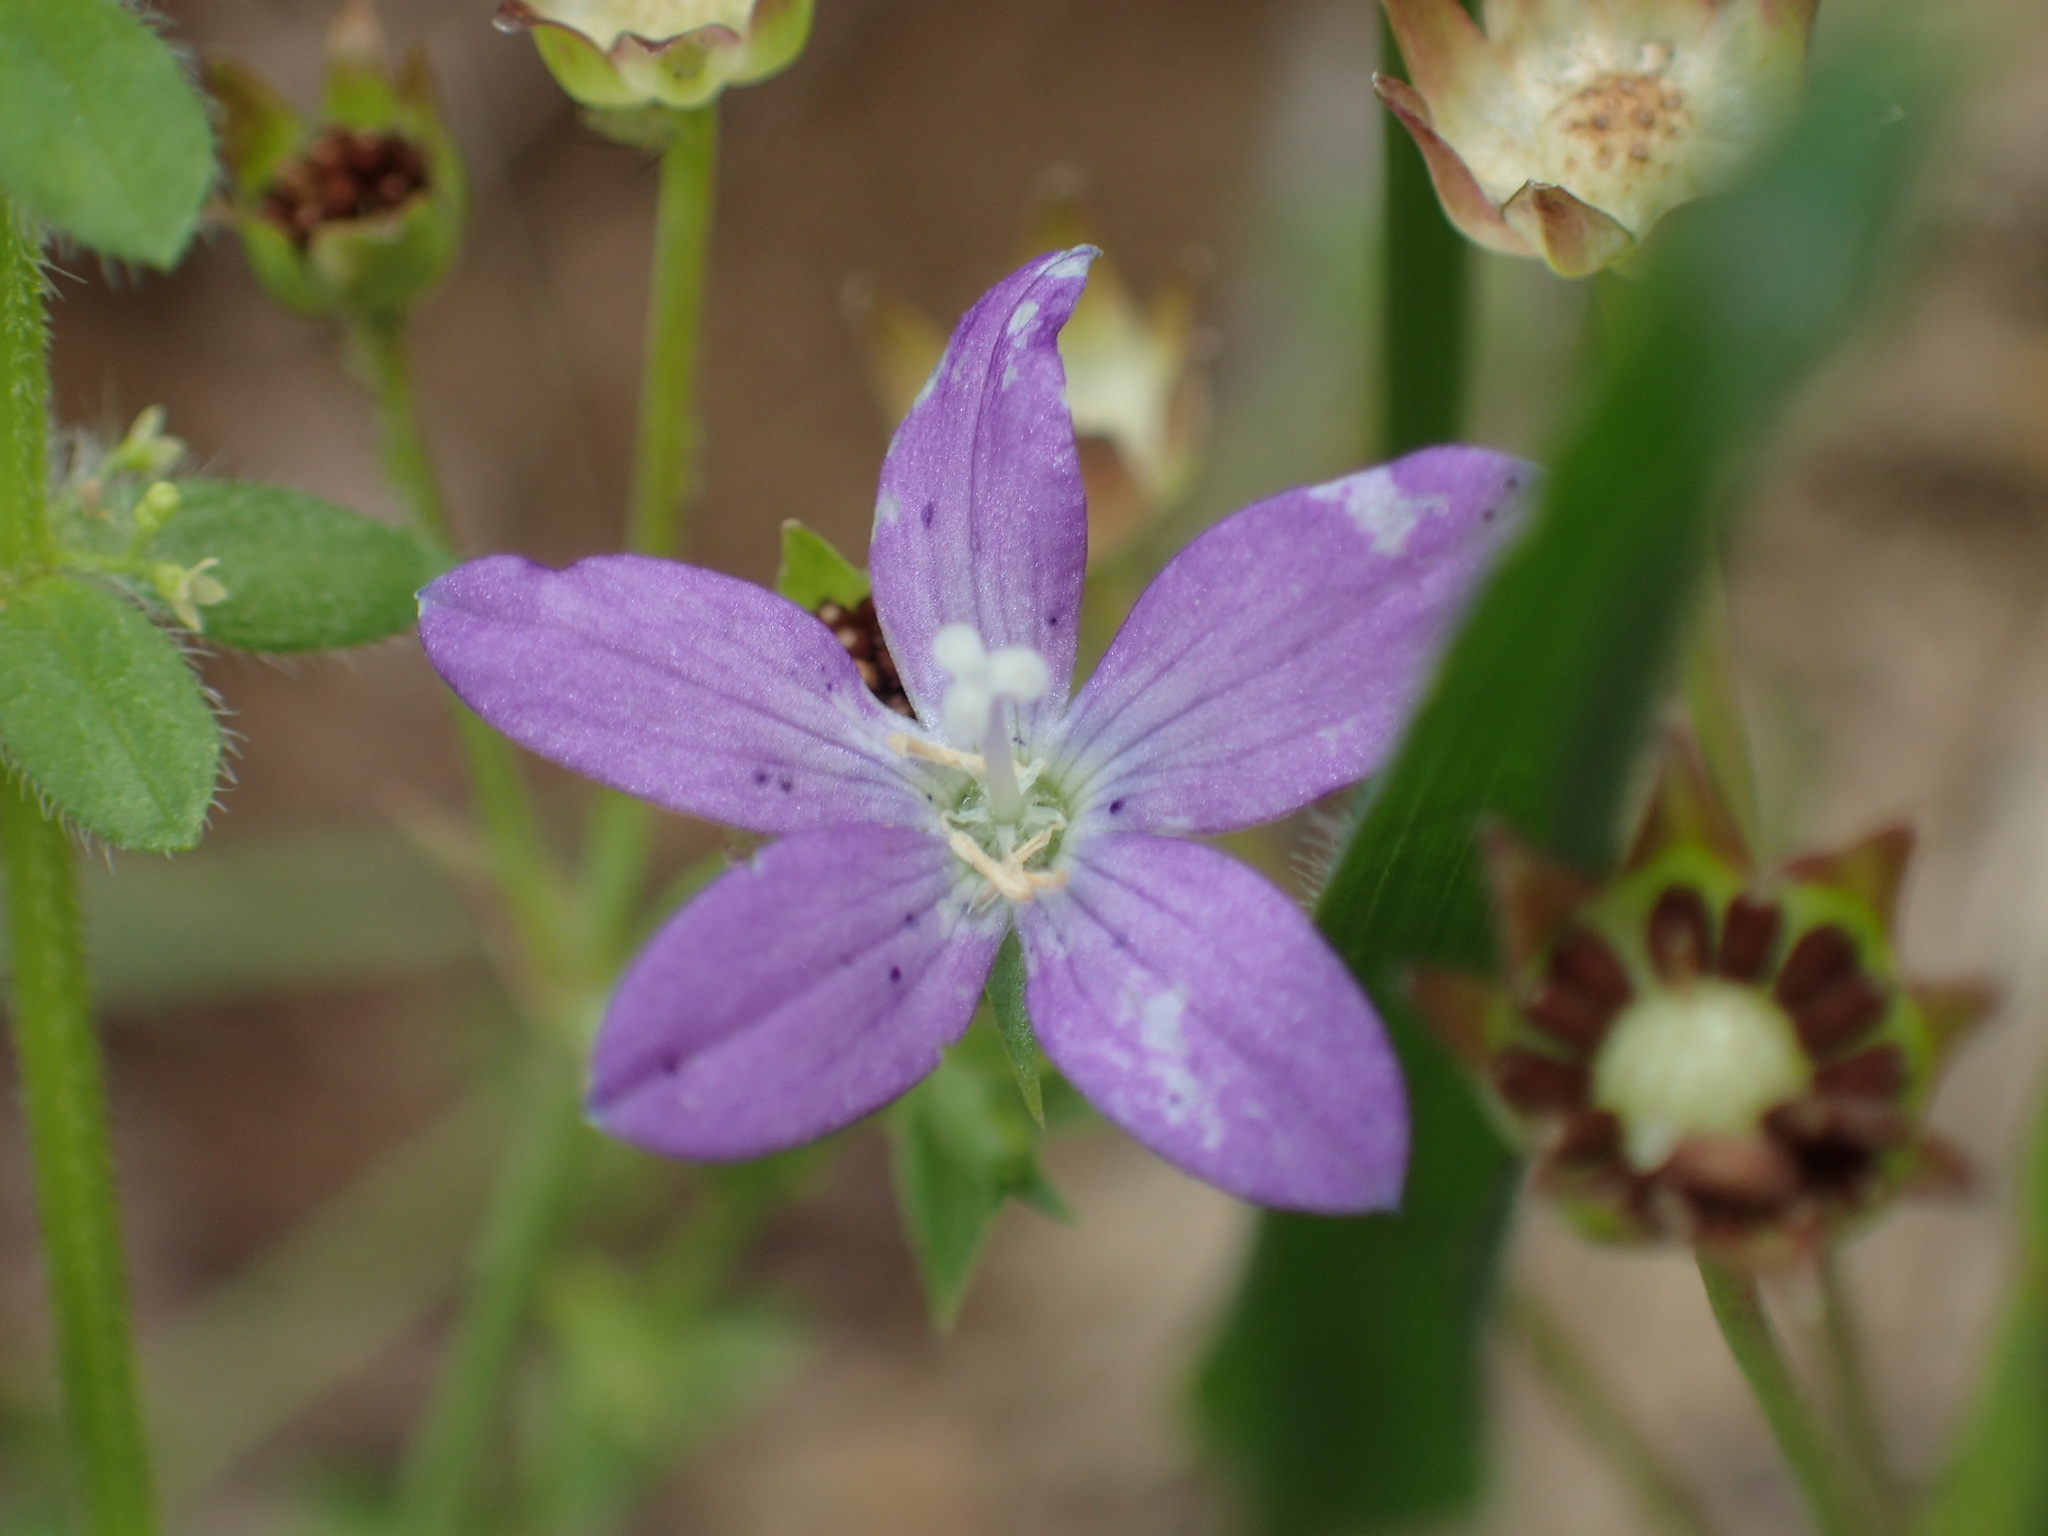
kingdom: Plantae
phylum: Tracheophyta
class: Magnoliopsida
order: Asterales
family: Campanulaceae
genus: Triodanis
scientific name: Triodanis biflora
